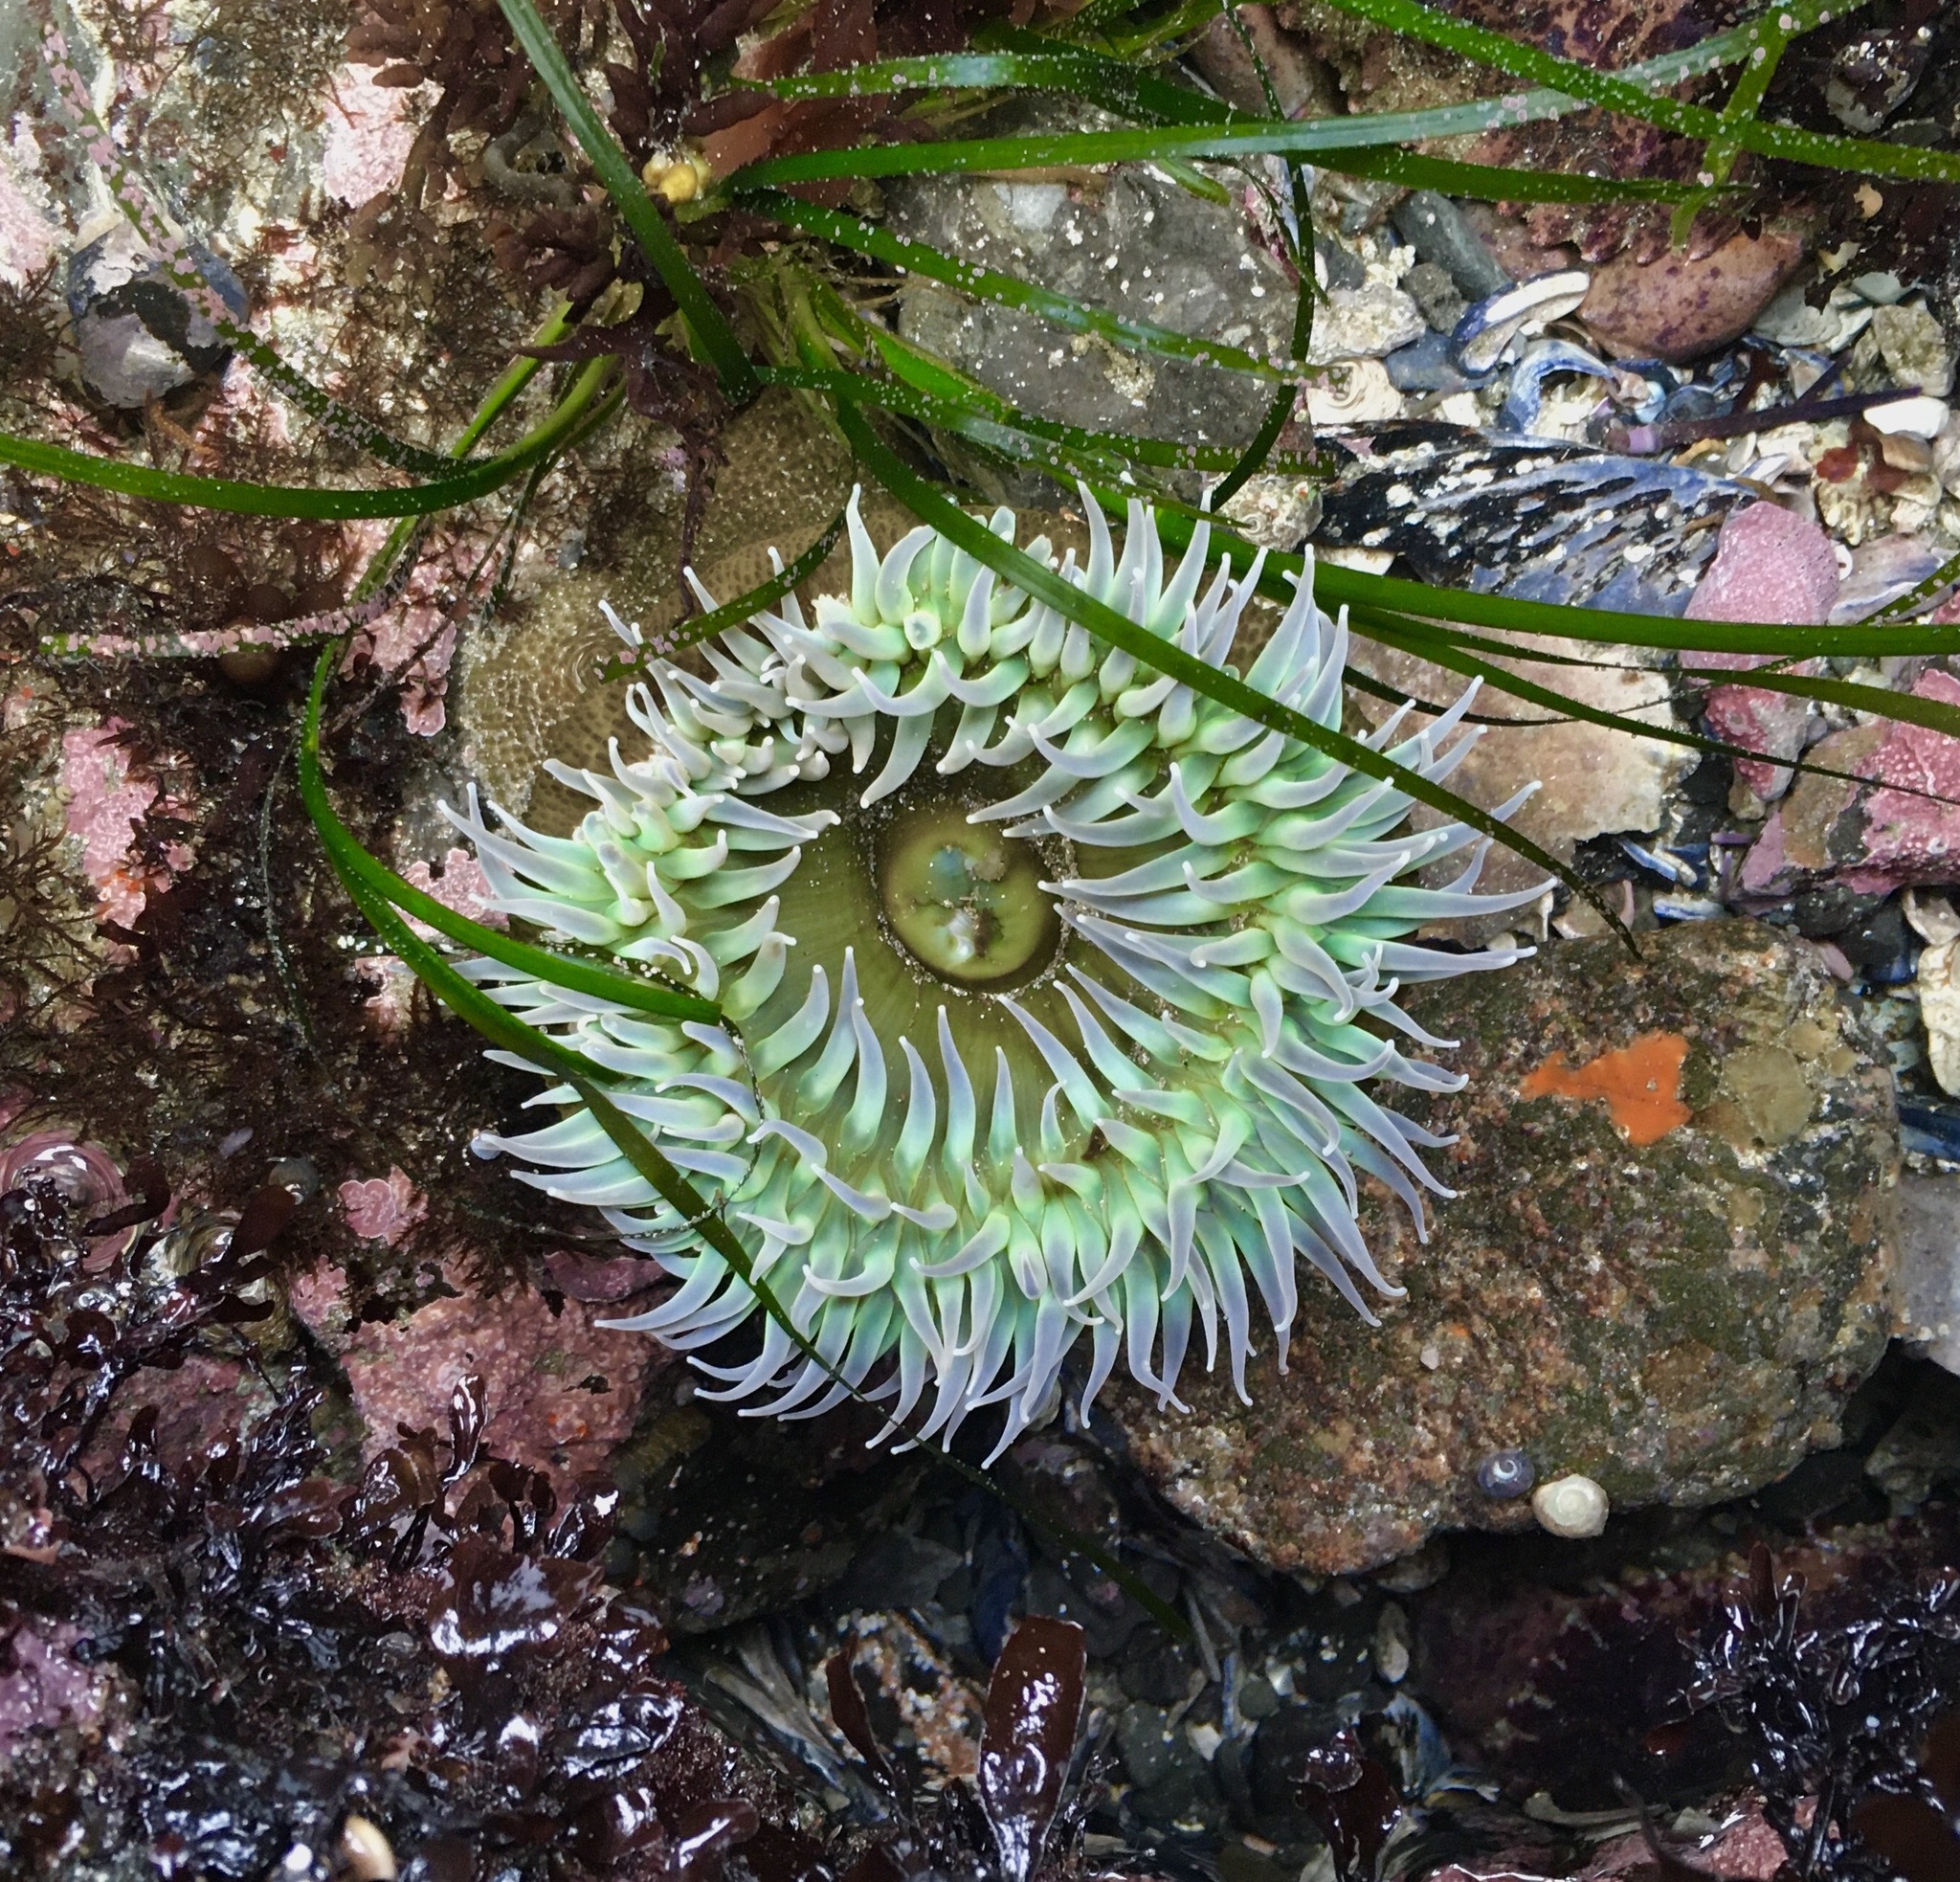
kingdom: Animalia
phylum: Cnidaria
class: Anthozoa
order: Actiniaria
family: Actiniidae
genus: Anthopleura
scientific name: Anthopleura xanthogrammica
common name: Giant green anemone
